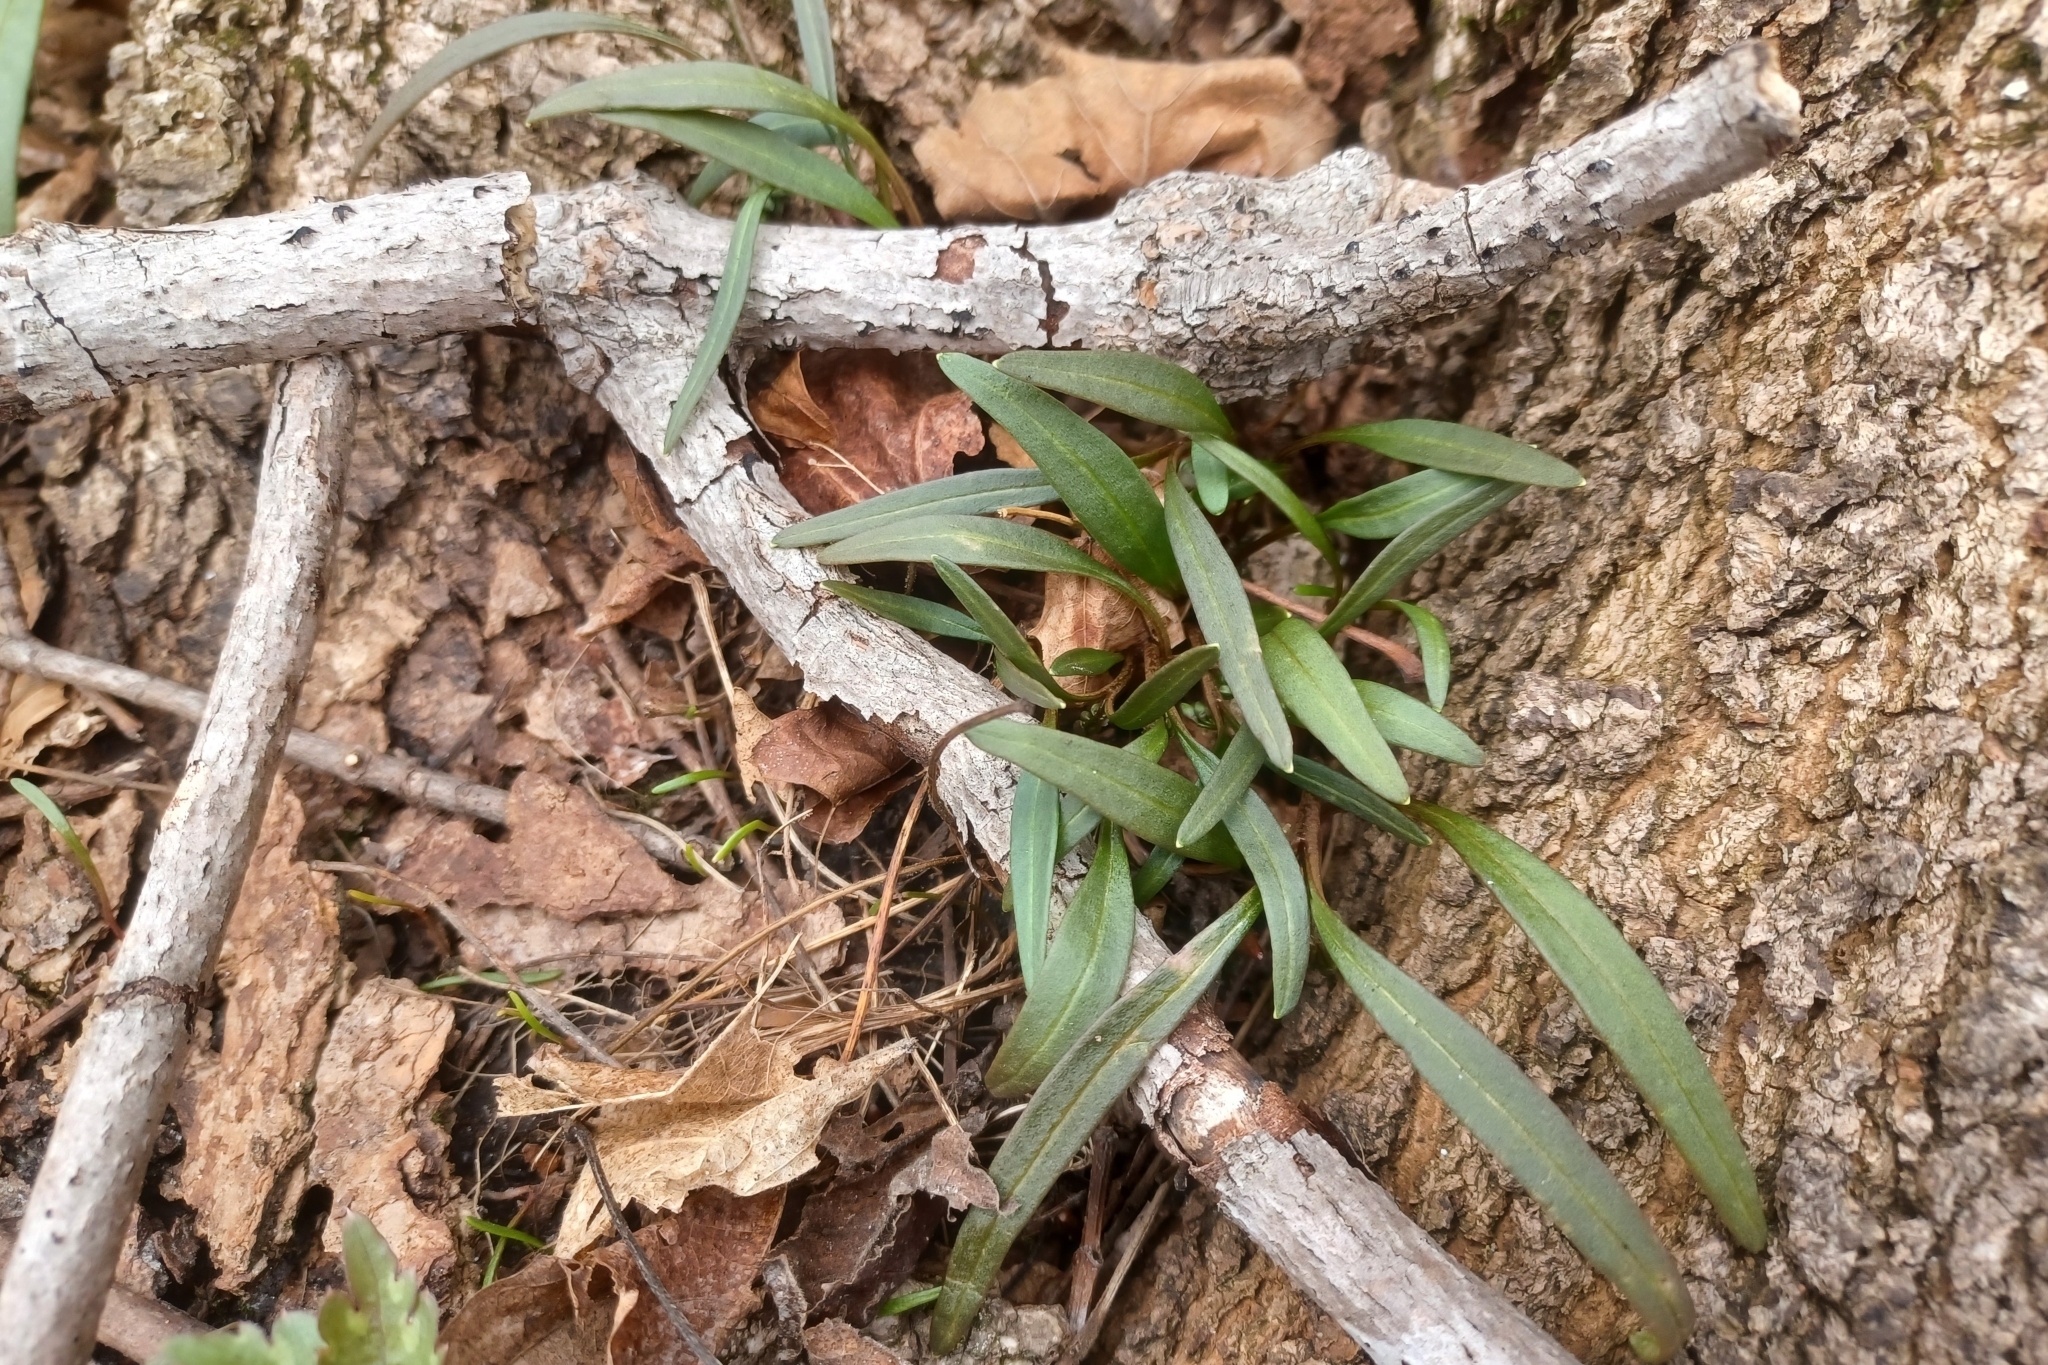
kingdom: Plantae
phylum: Tracheophyta
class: Magnoliopsida
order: Caryophyllales
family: Montiaceae
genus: Claytonia
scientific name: Claytonia virginica
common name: Virginia springbeauty
